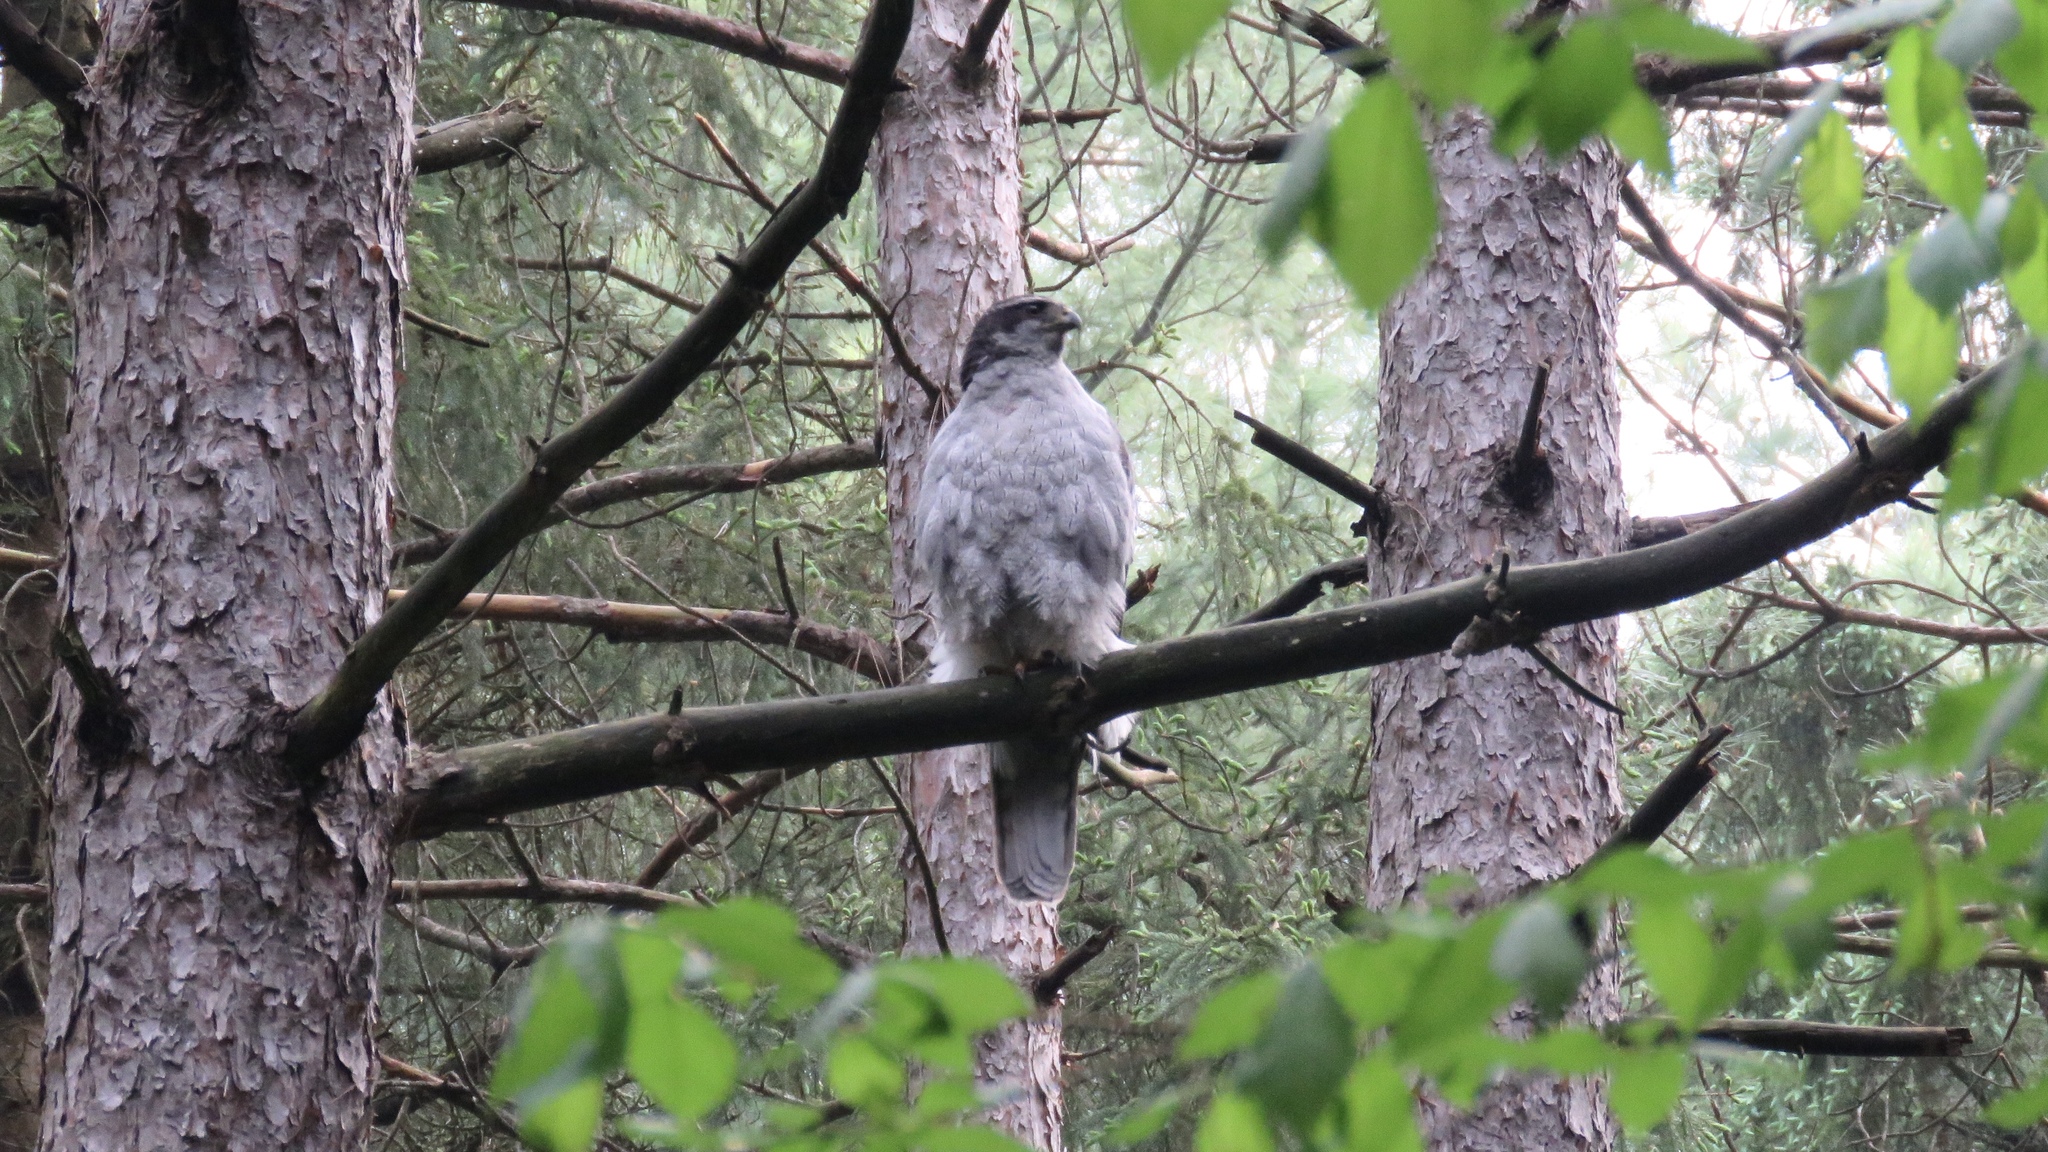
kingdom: Animalia
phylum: Chordata
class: Aves
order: Accipitriformes
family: Accipitridae
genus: Accipiter
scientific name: Accipiter gentilis
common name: Northern goshawk
